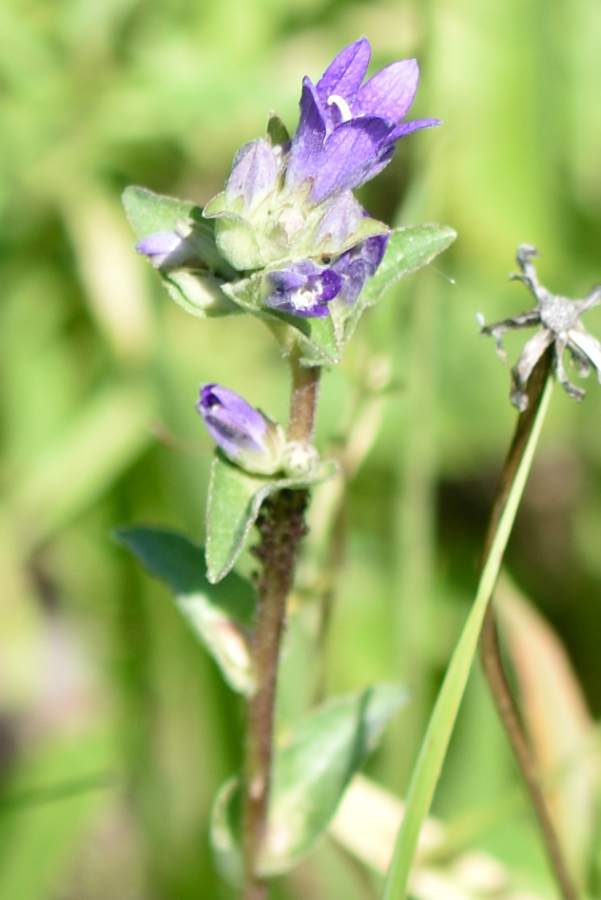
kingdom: Plantae
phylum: Tracheophyta
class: Magnoliopsida
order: Asterales
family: Campanulaceae
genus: Campanula
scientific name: Campanula glomerata
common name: Clustered bellflower
